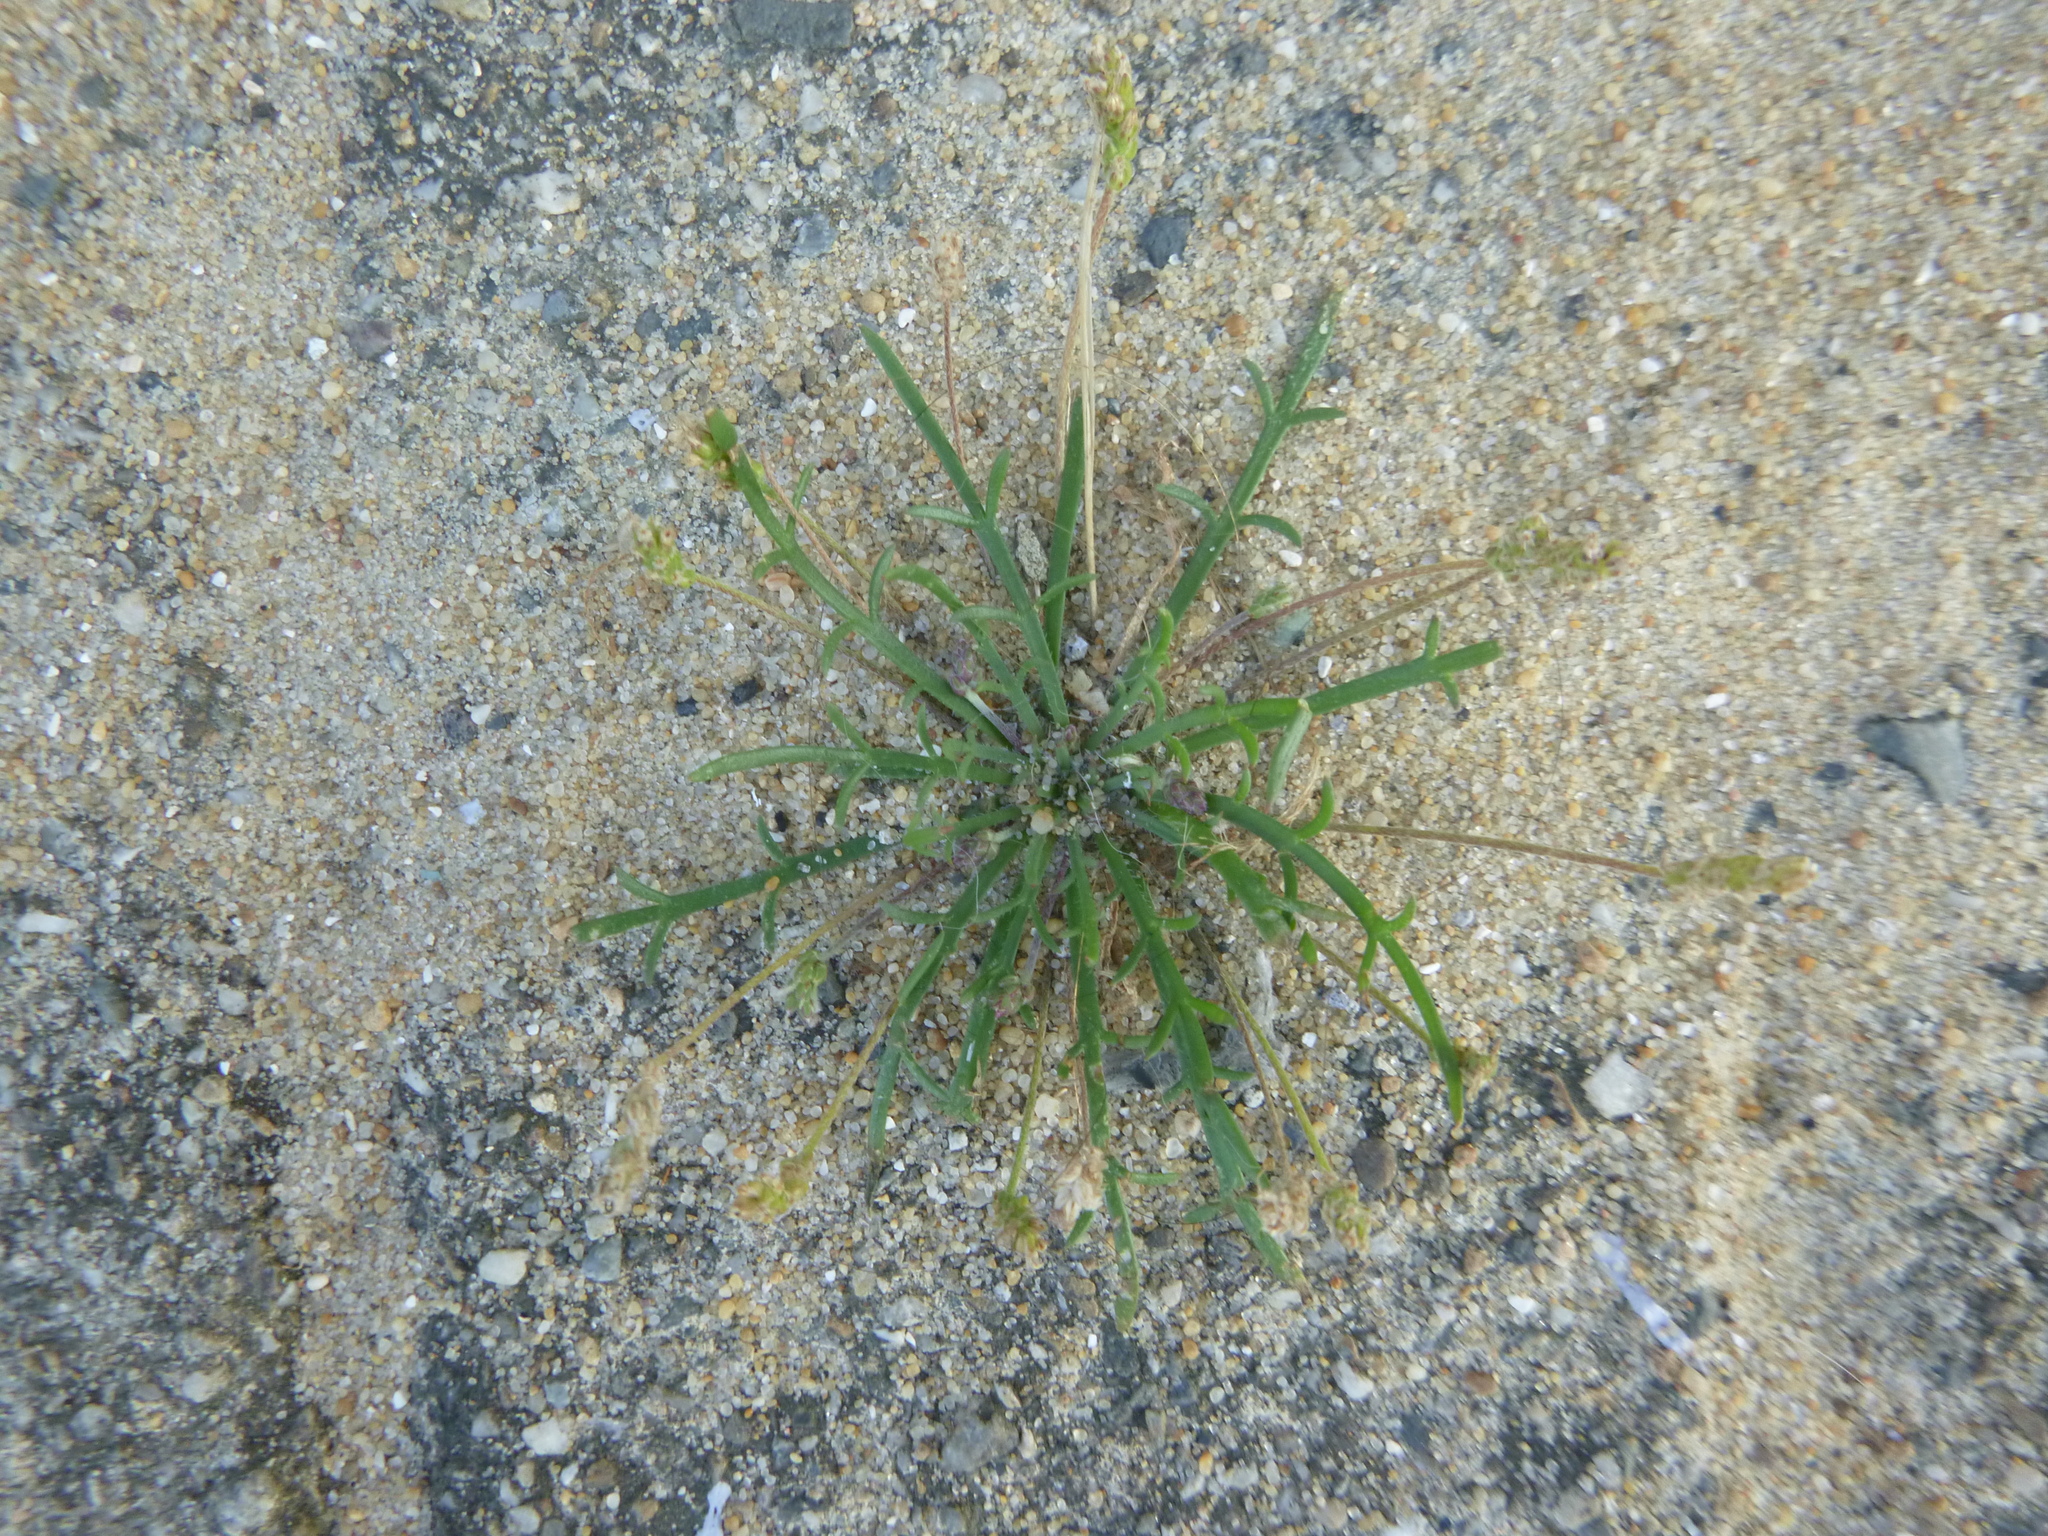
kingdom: Plantae
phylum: Tracheophyta
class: Magnoliopsida
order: Lamiales
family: Plantaginaceae
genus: Plantago
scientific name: Plantago coronopus
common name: Buck's-horn plantain
